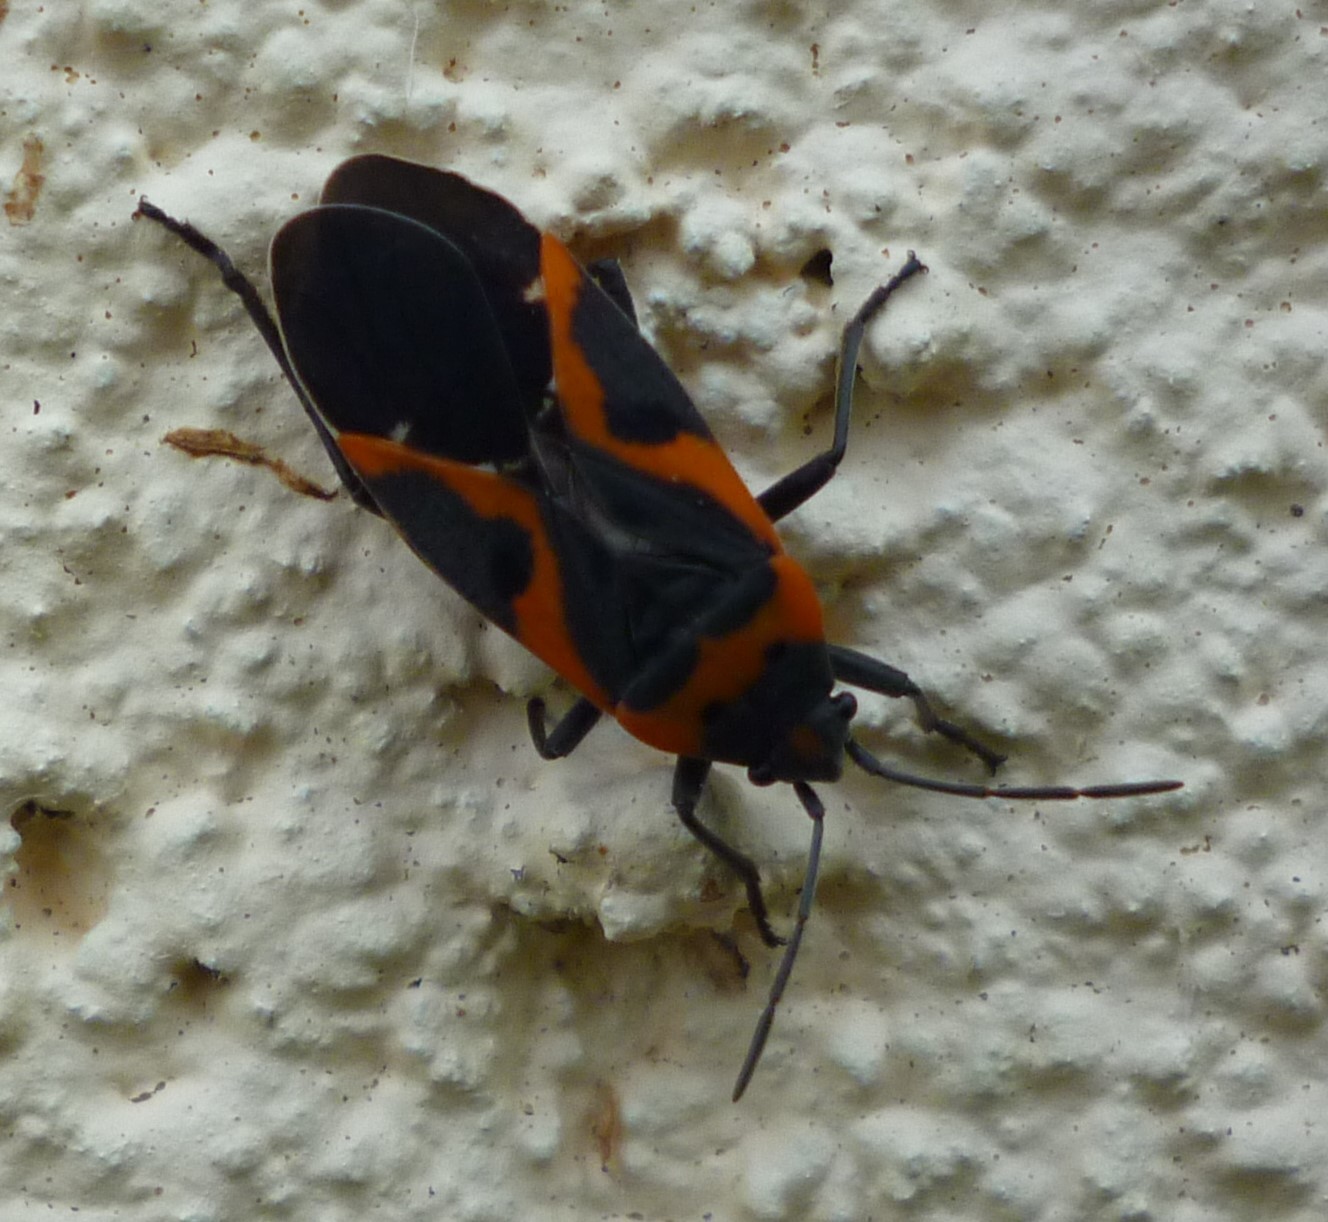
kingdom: Animalia
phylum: Arthropoda
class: Insecta
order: Hemiptera
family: Lygaeidae
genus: Lygaeus
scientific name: Lygaeus kalmii
